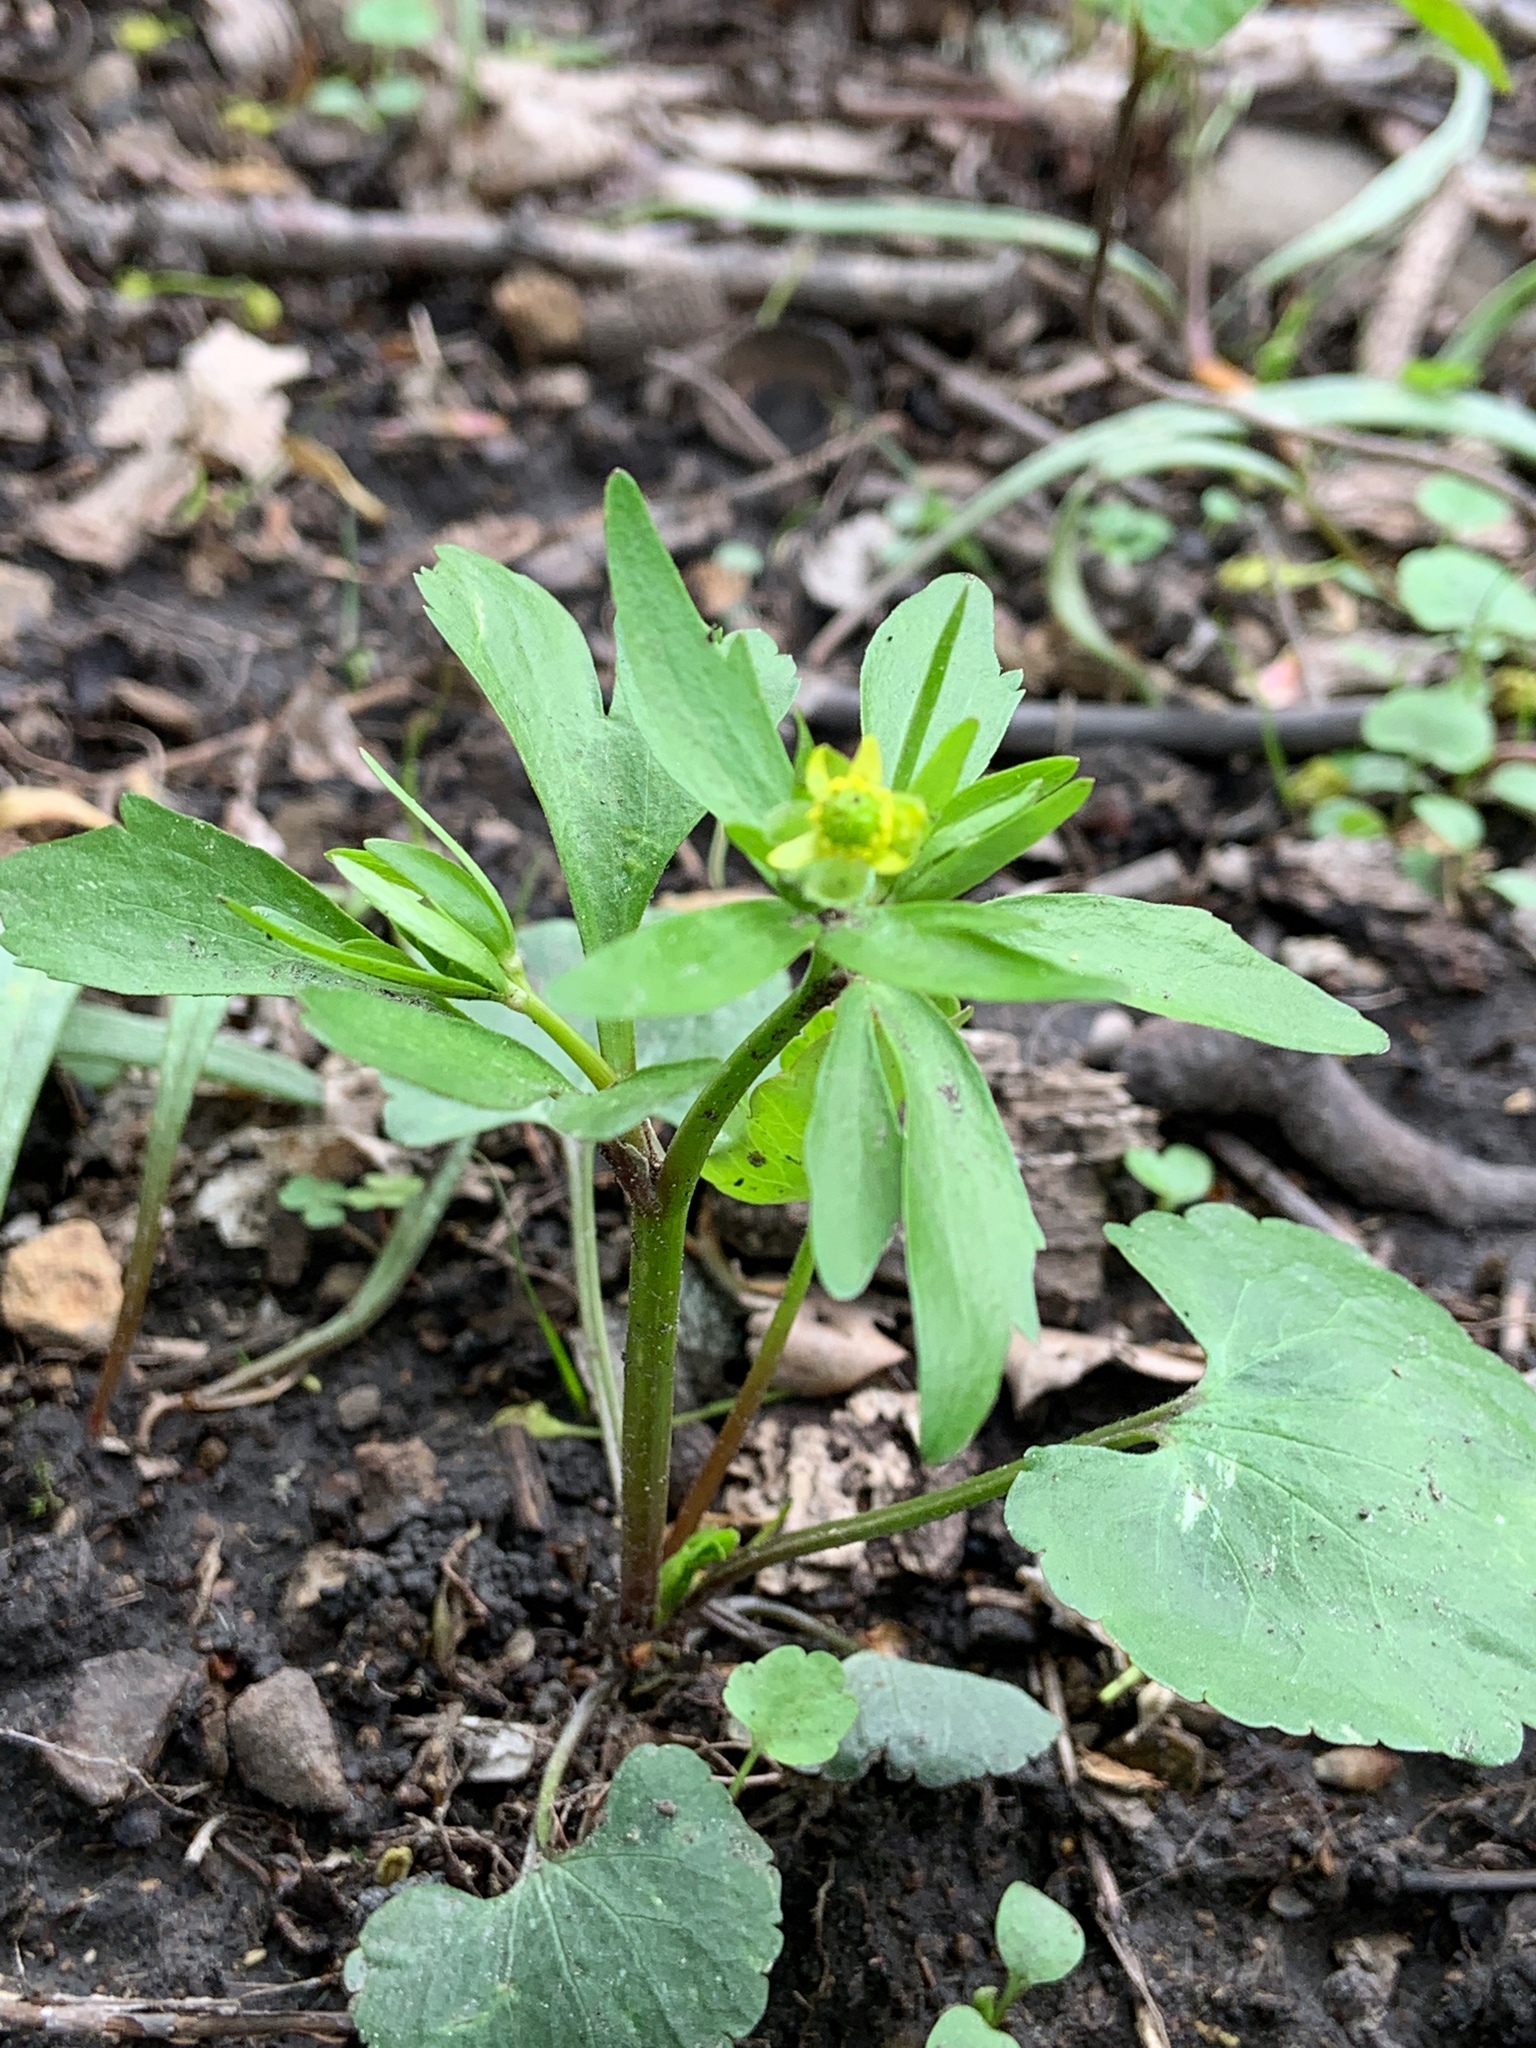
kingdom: Plantae
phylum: Tracheophyta
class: Magnoliopsida
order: Ranunculales
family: Ranunculaceae
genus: Ranunculus
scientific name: Ranunculus abortivus
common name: Early wood buttercup
